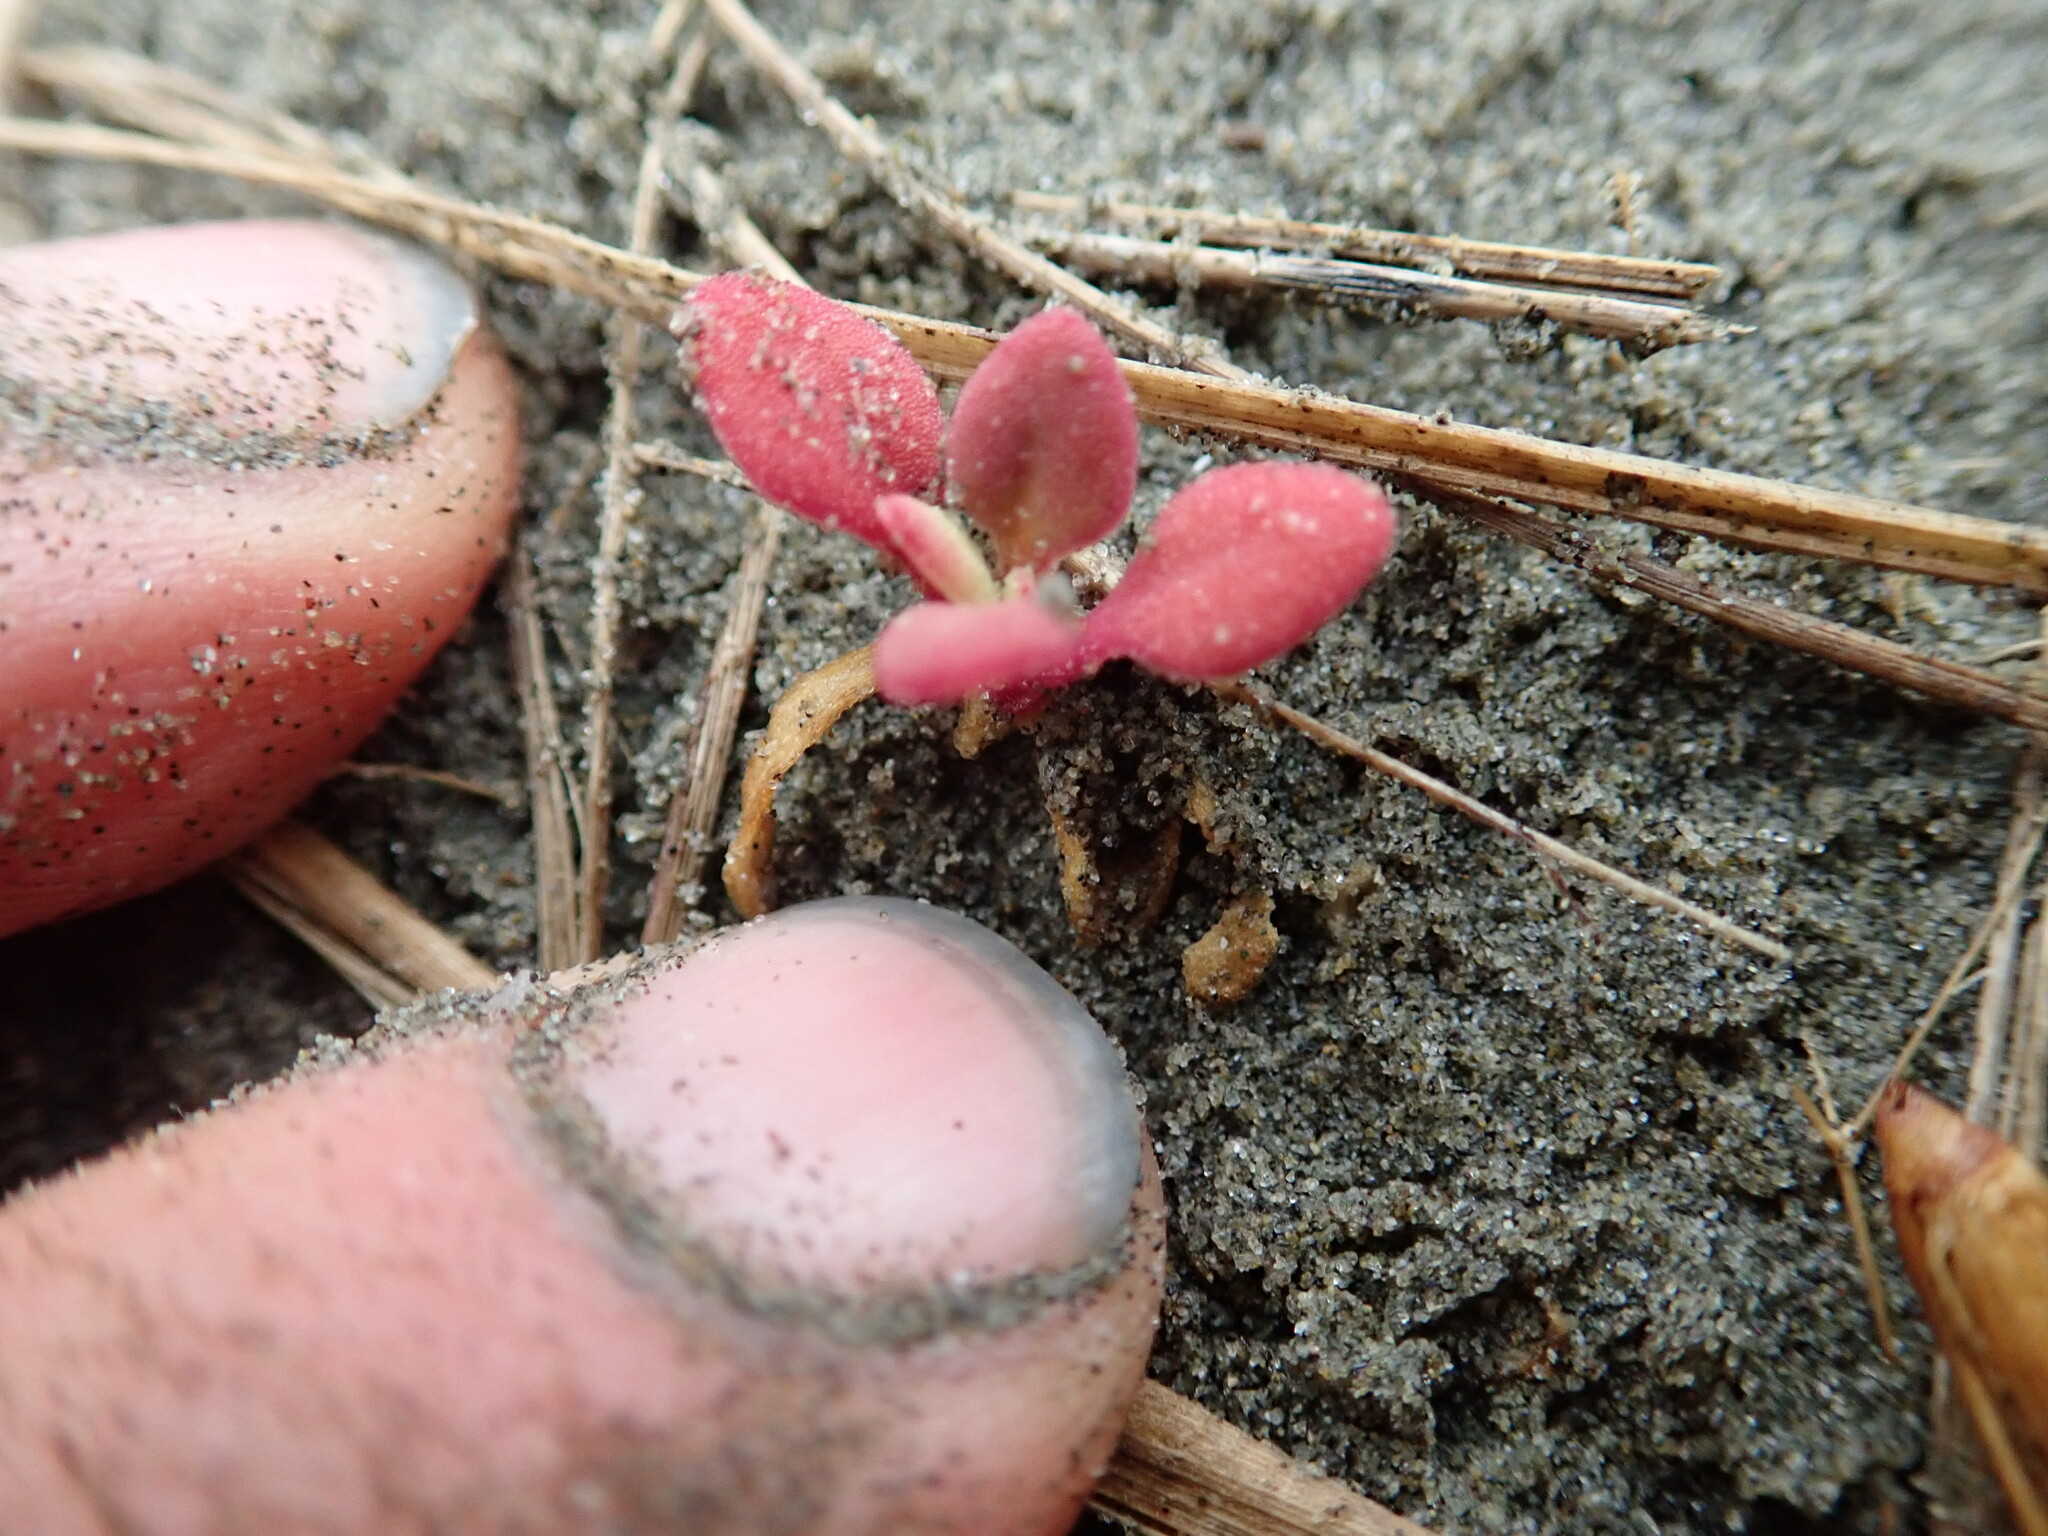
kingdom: Plantae
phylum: Tracheophyta
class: Magnoliopsida
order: Caryophyllales
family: Aizoaceae
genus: Tetragonia
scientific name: Tetragonia implexicoma
